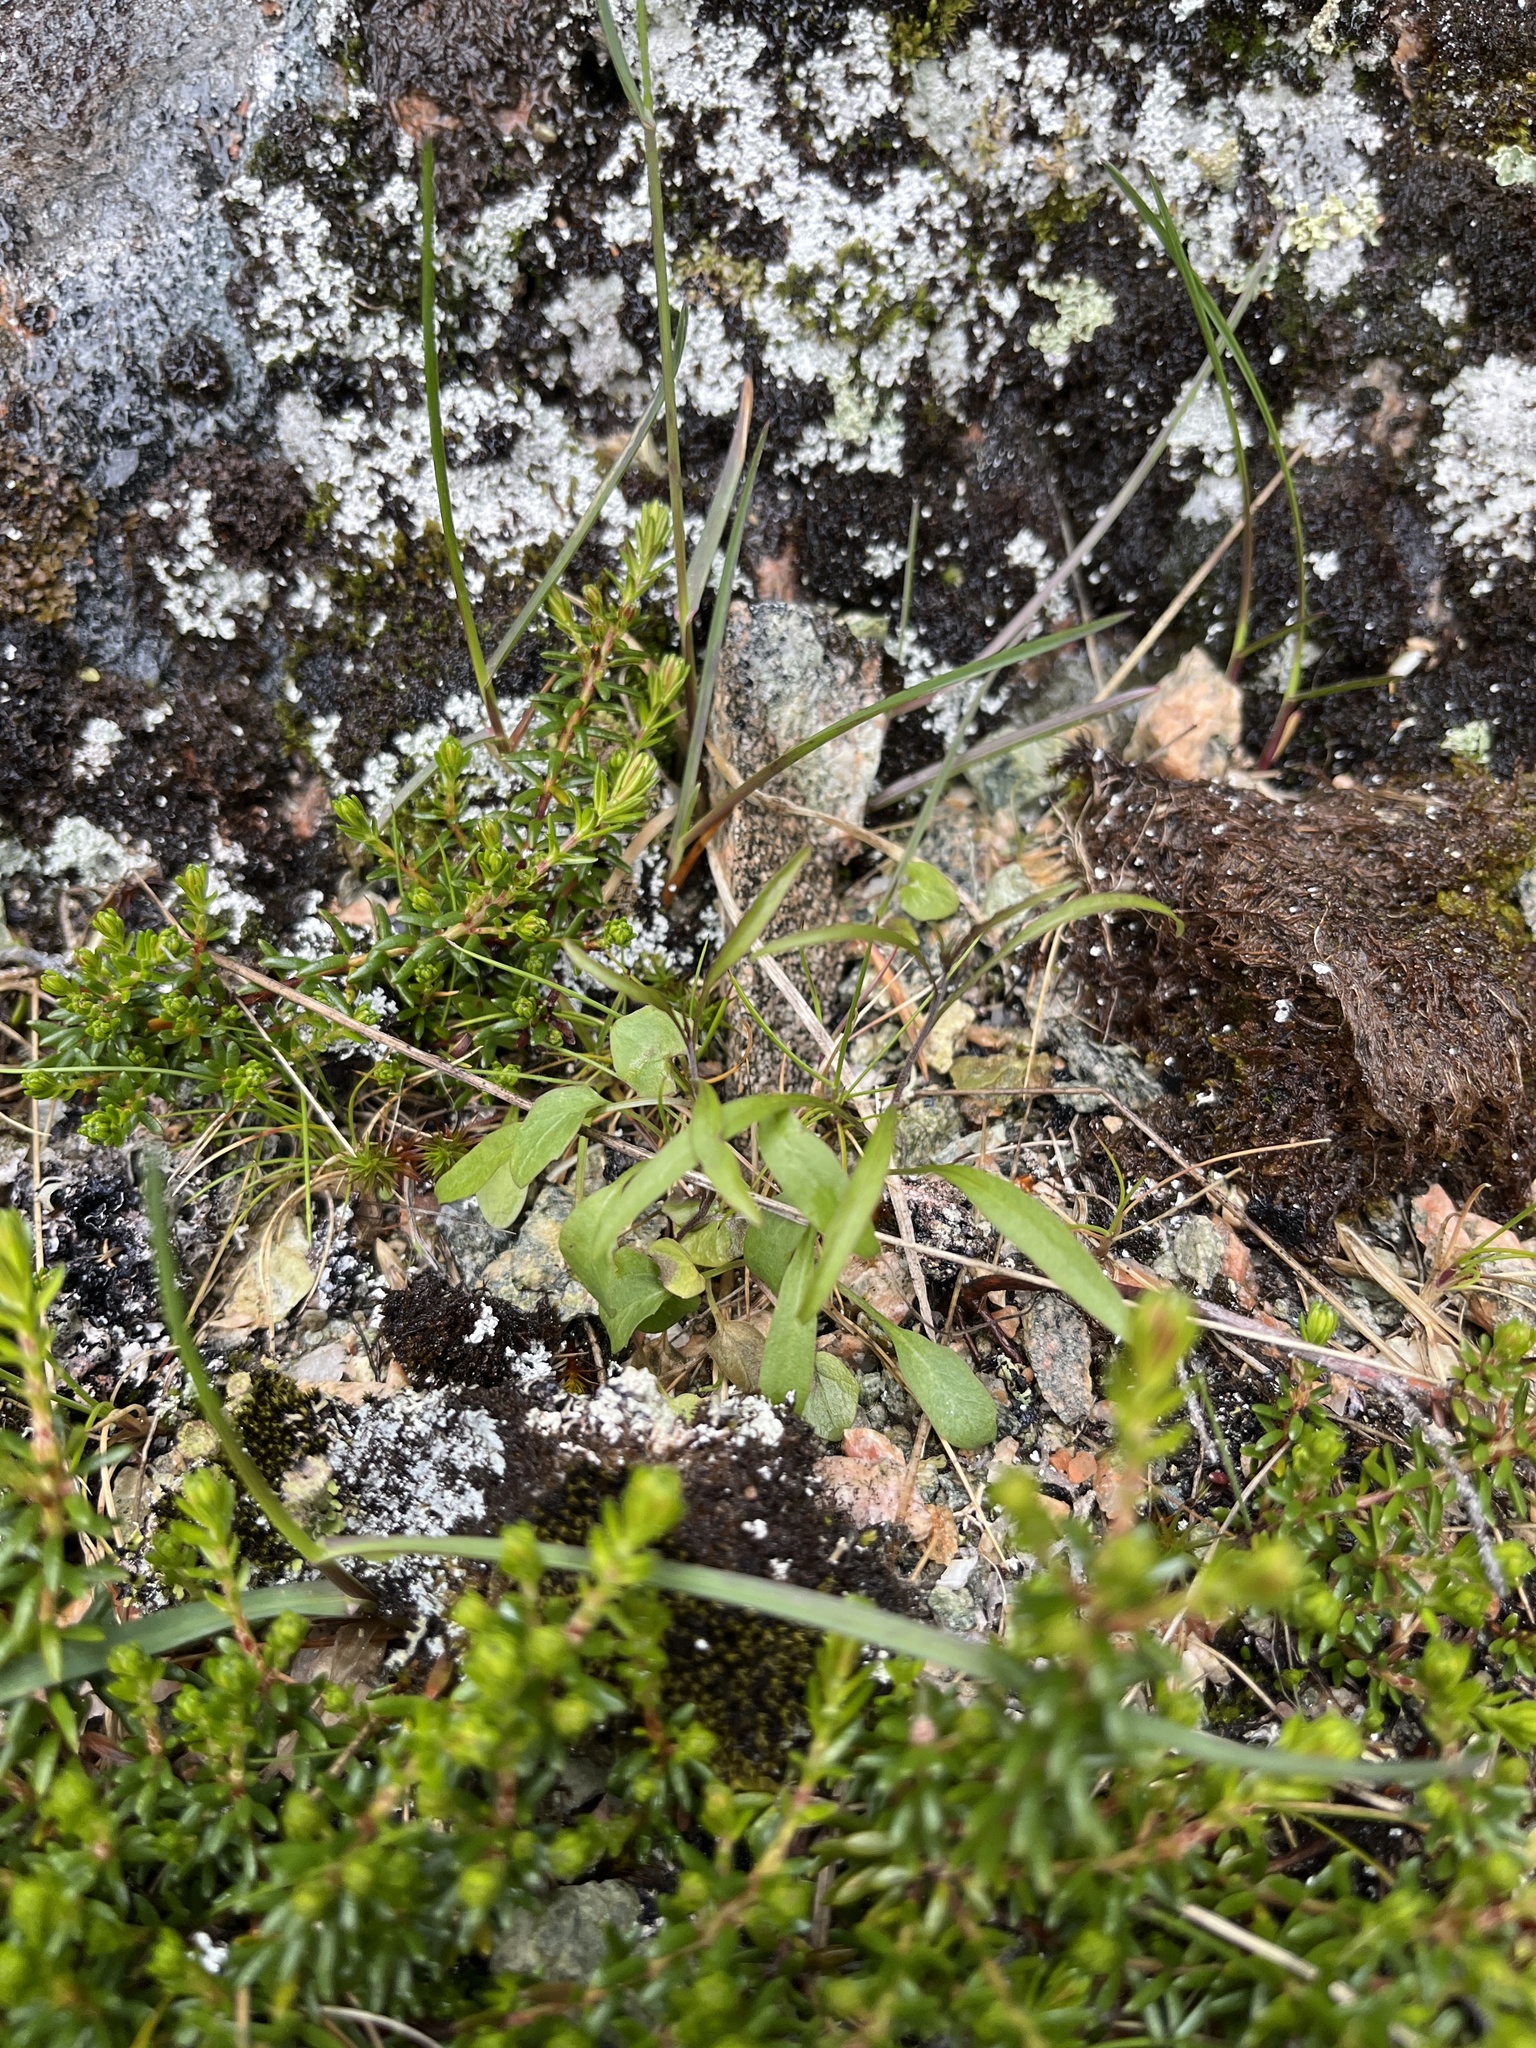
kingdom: Plantae
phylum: Tracheophyta
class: Magnoliopsida
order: Asterales
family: Campanulaceae
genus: Campanula
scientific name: Campanula giesekiana
